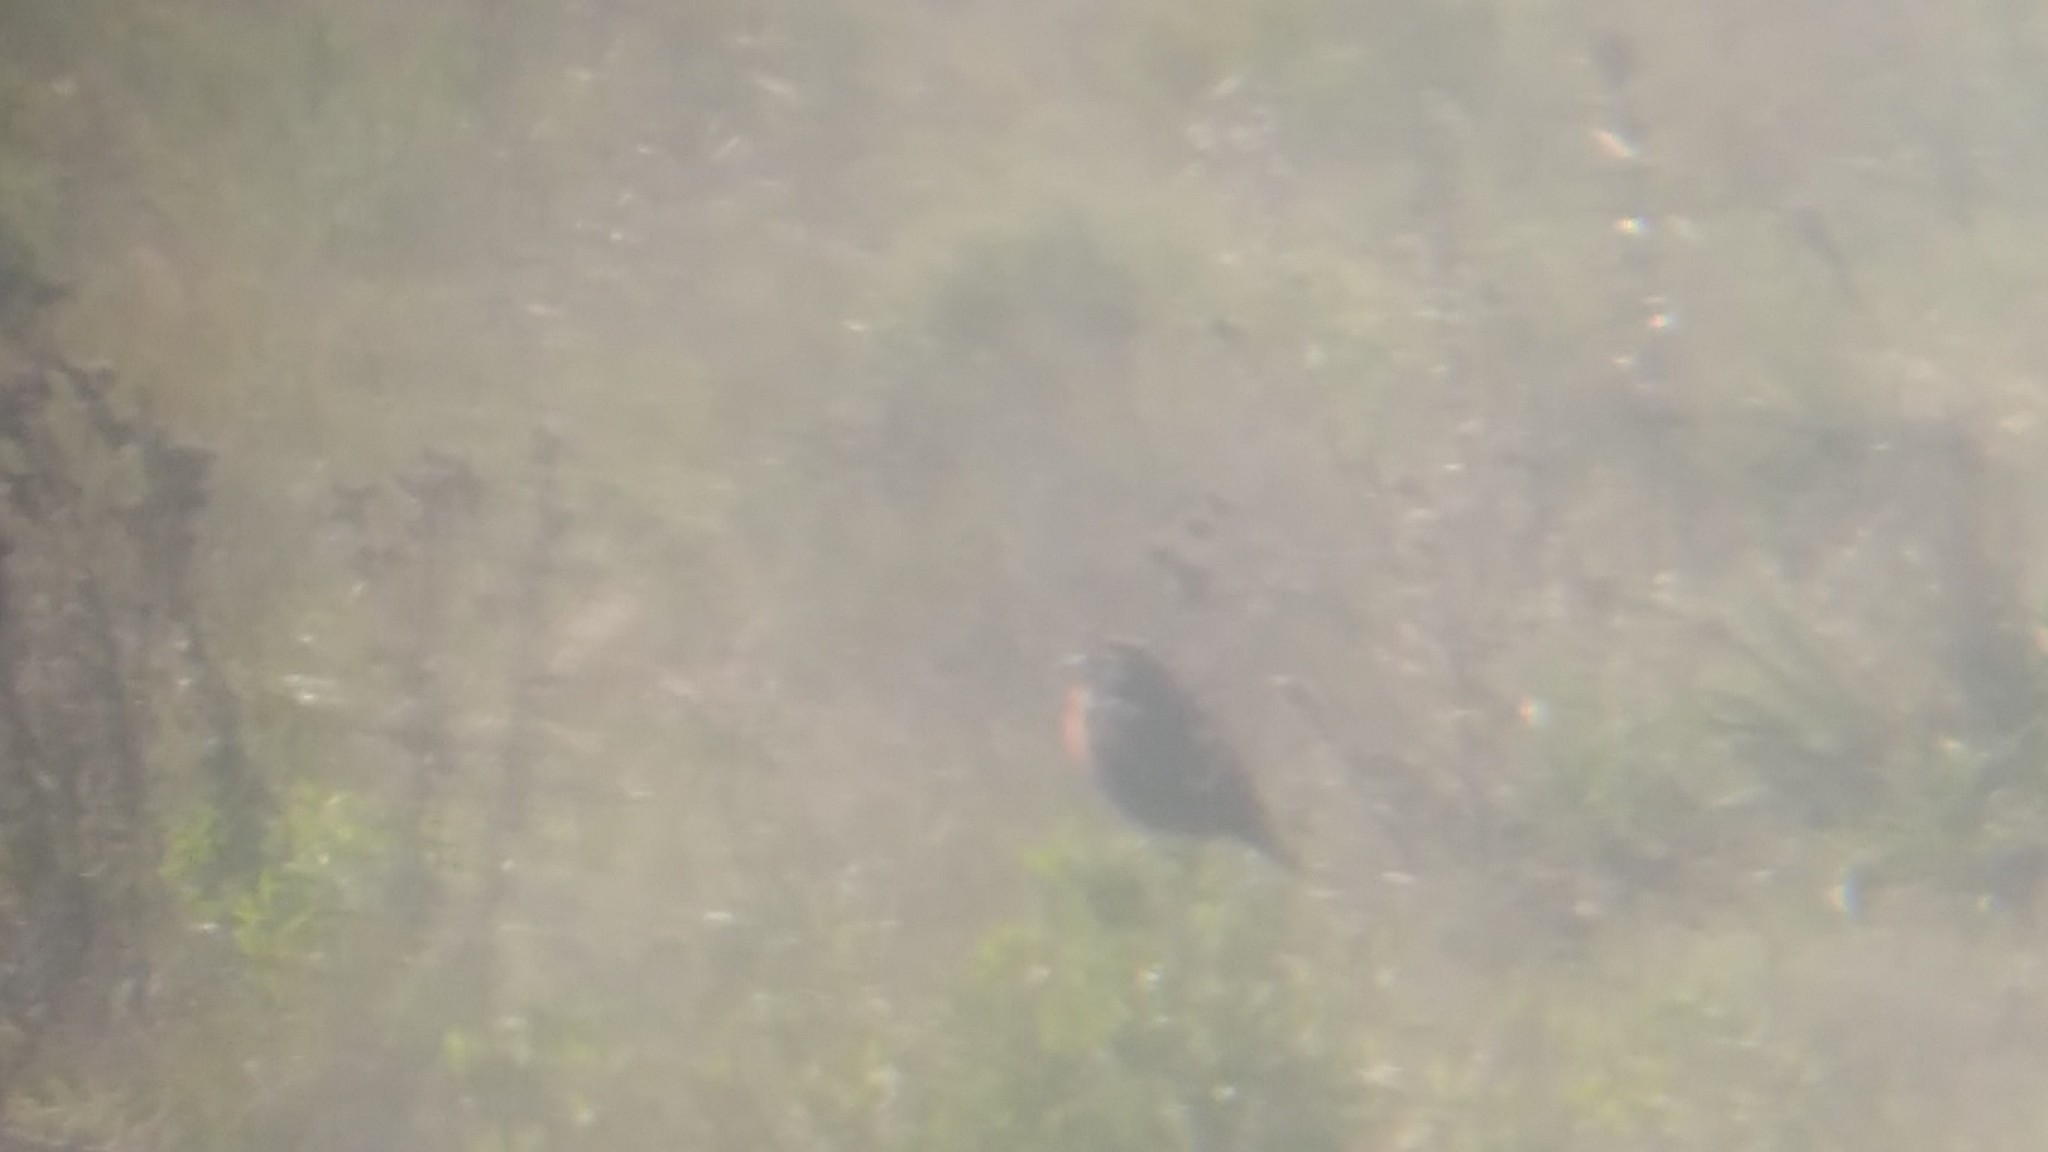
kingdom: Animalia
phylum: Chordata
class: Aves
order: Passeriformes
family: Icteridae
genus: Sturnella
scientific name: Sturnella superciliaris
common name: White-browed blackbird
